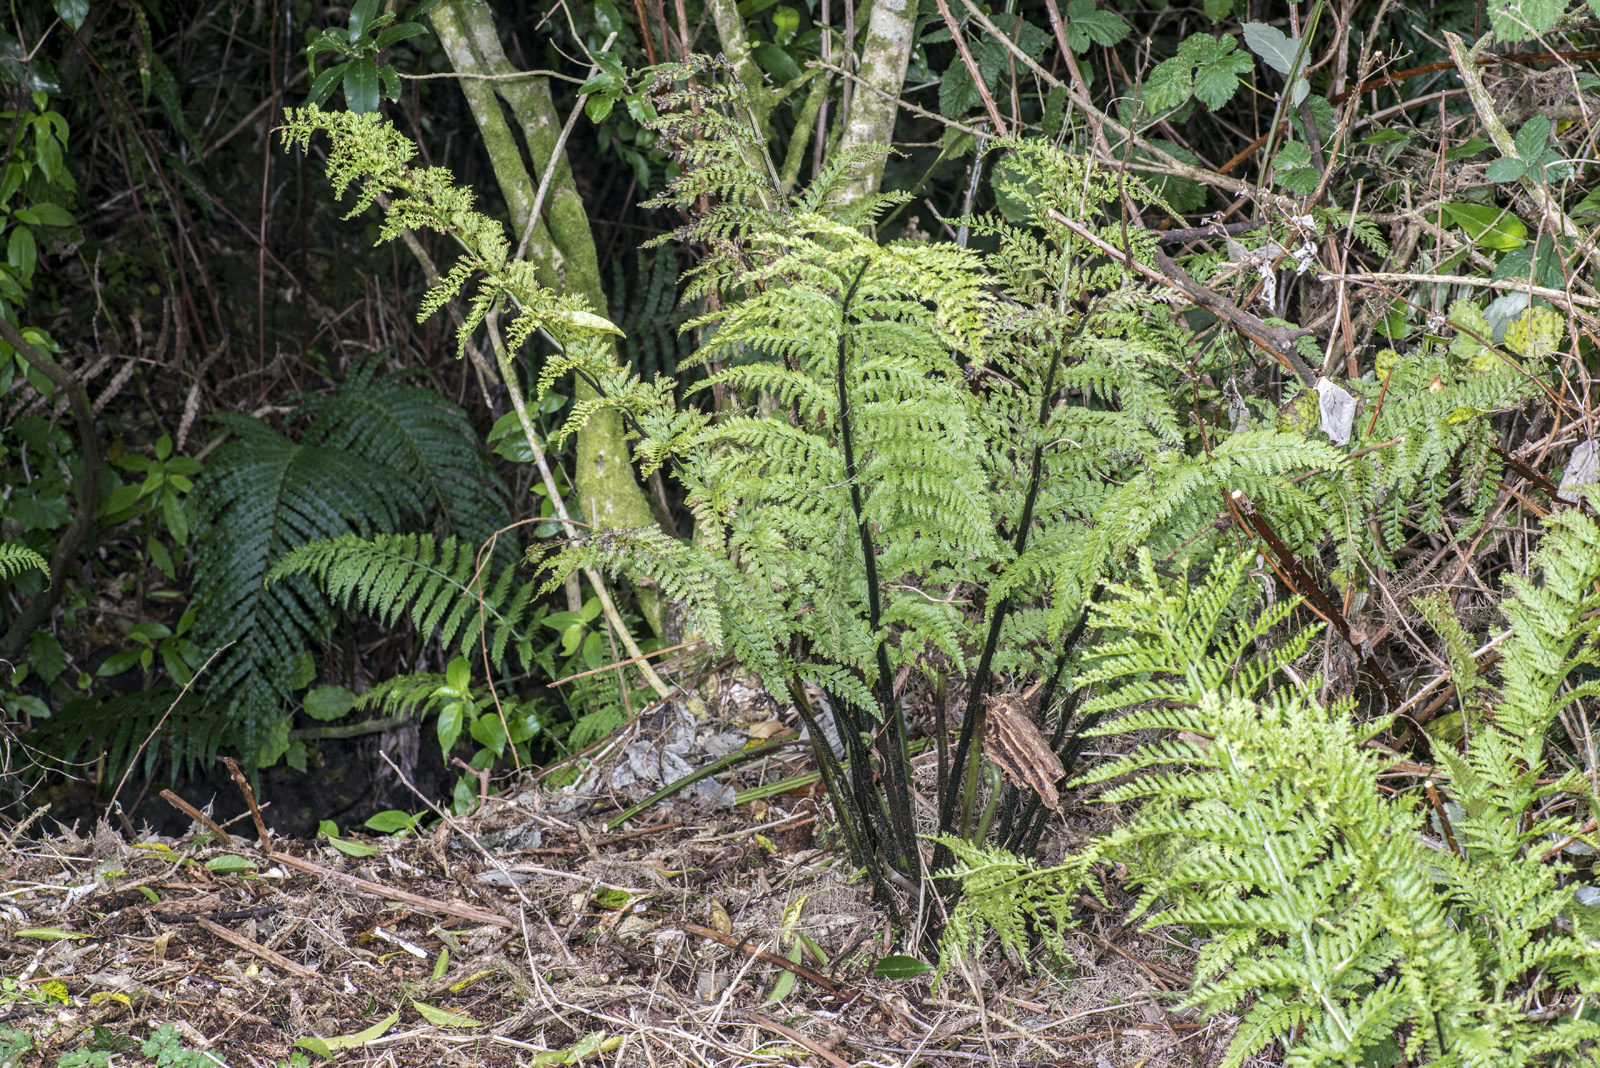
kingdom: Plantae
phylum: Tracheophyta
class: Polypodiopsida
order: Polypodiales
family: Aspleniaceae
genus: Asplenium
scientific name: Asplenium bulbiferum
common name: Mother fern
